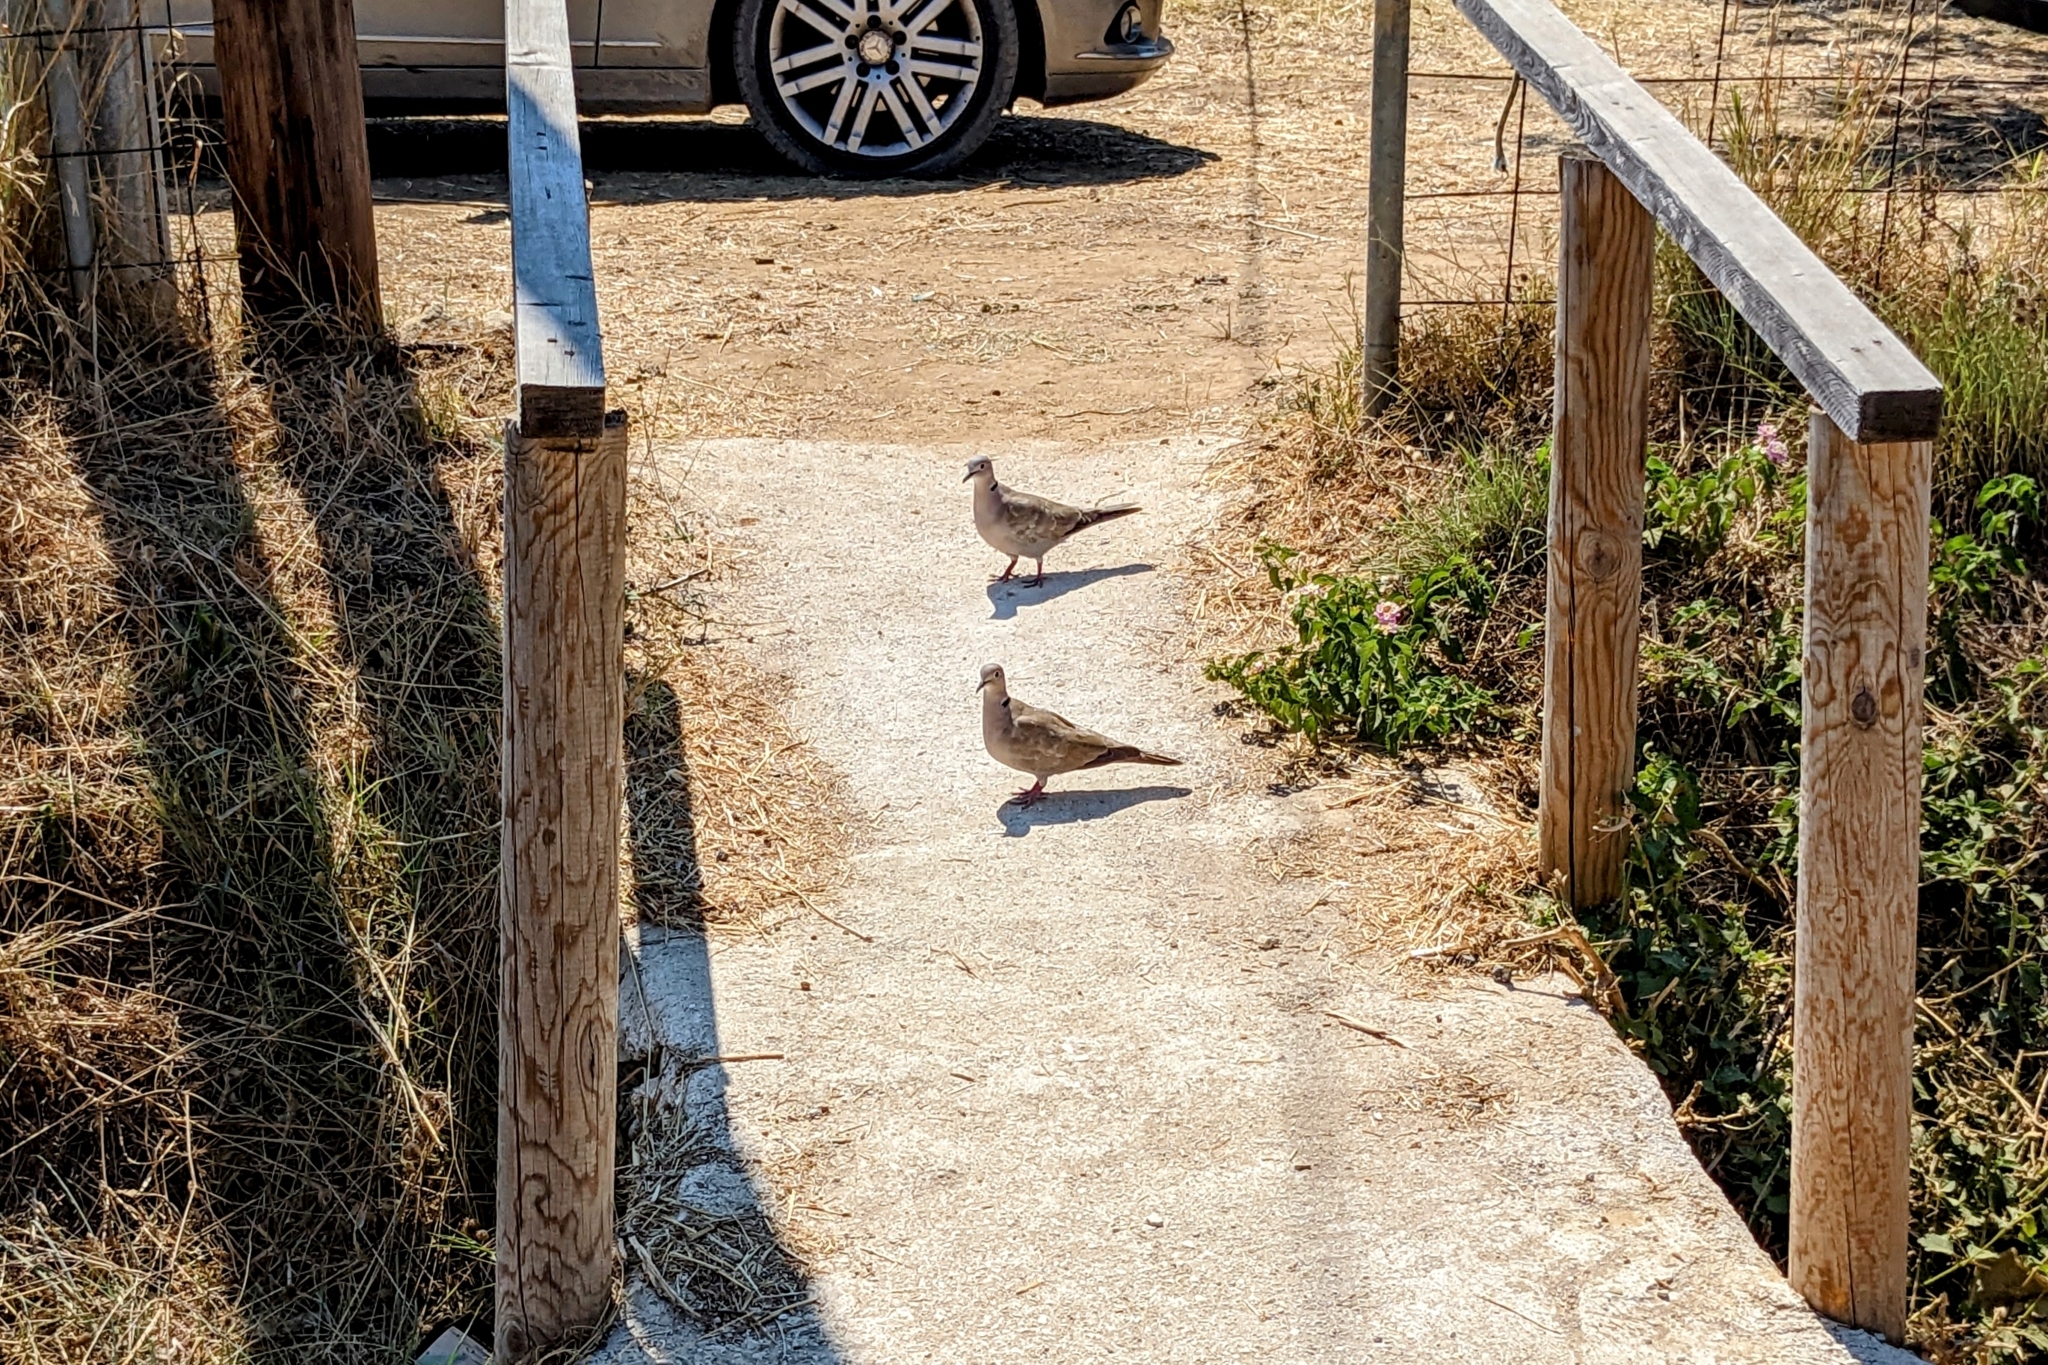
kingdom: Animalia
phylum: Chordata
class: Aves
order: Columbiformes
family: Columbidae
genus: Streptopelia
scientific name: Streptopelia decaocto
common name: Eurasian collared dove
